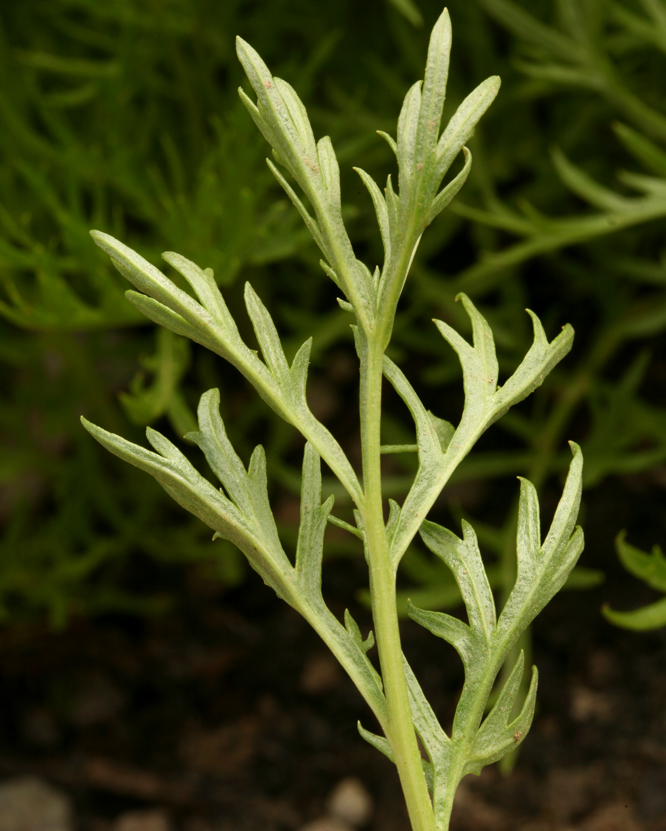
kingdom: Plantae
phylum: Tracheophyta
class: Magnoliopsida
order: Asterales
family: Asteraceae
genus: Artemisia
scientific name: Artemisia norvegica
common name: Norwegian mugwort
